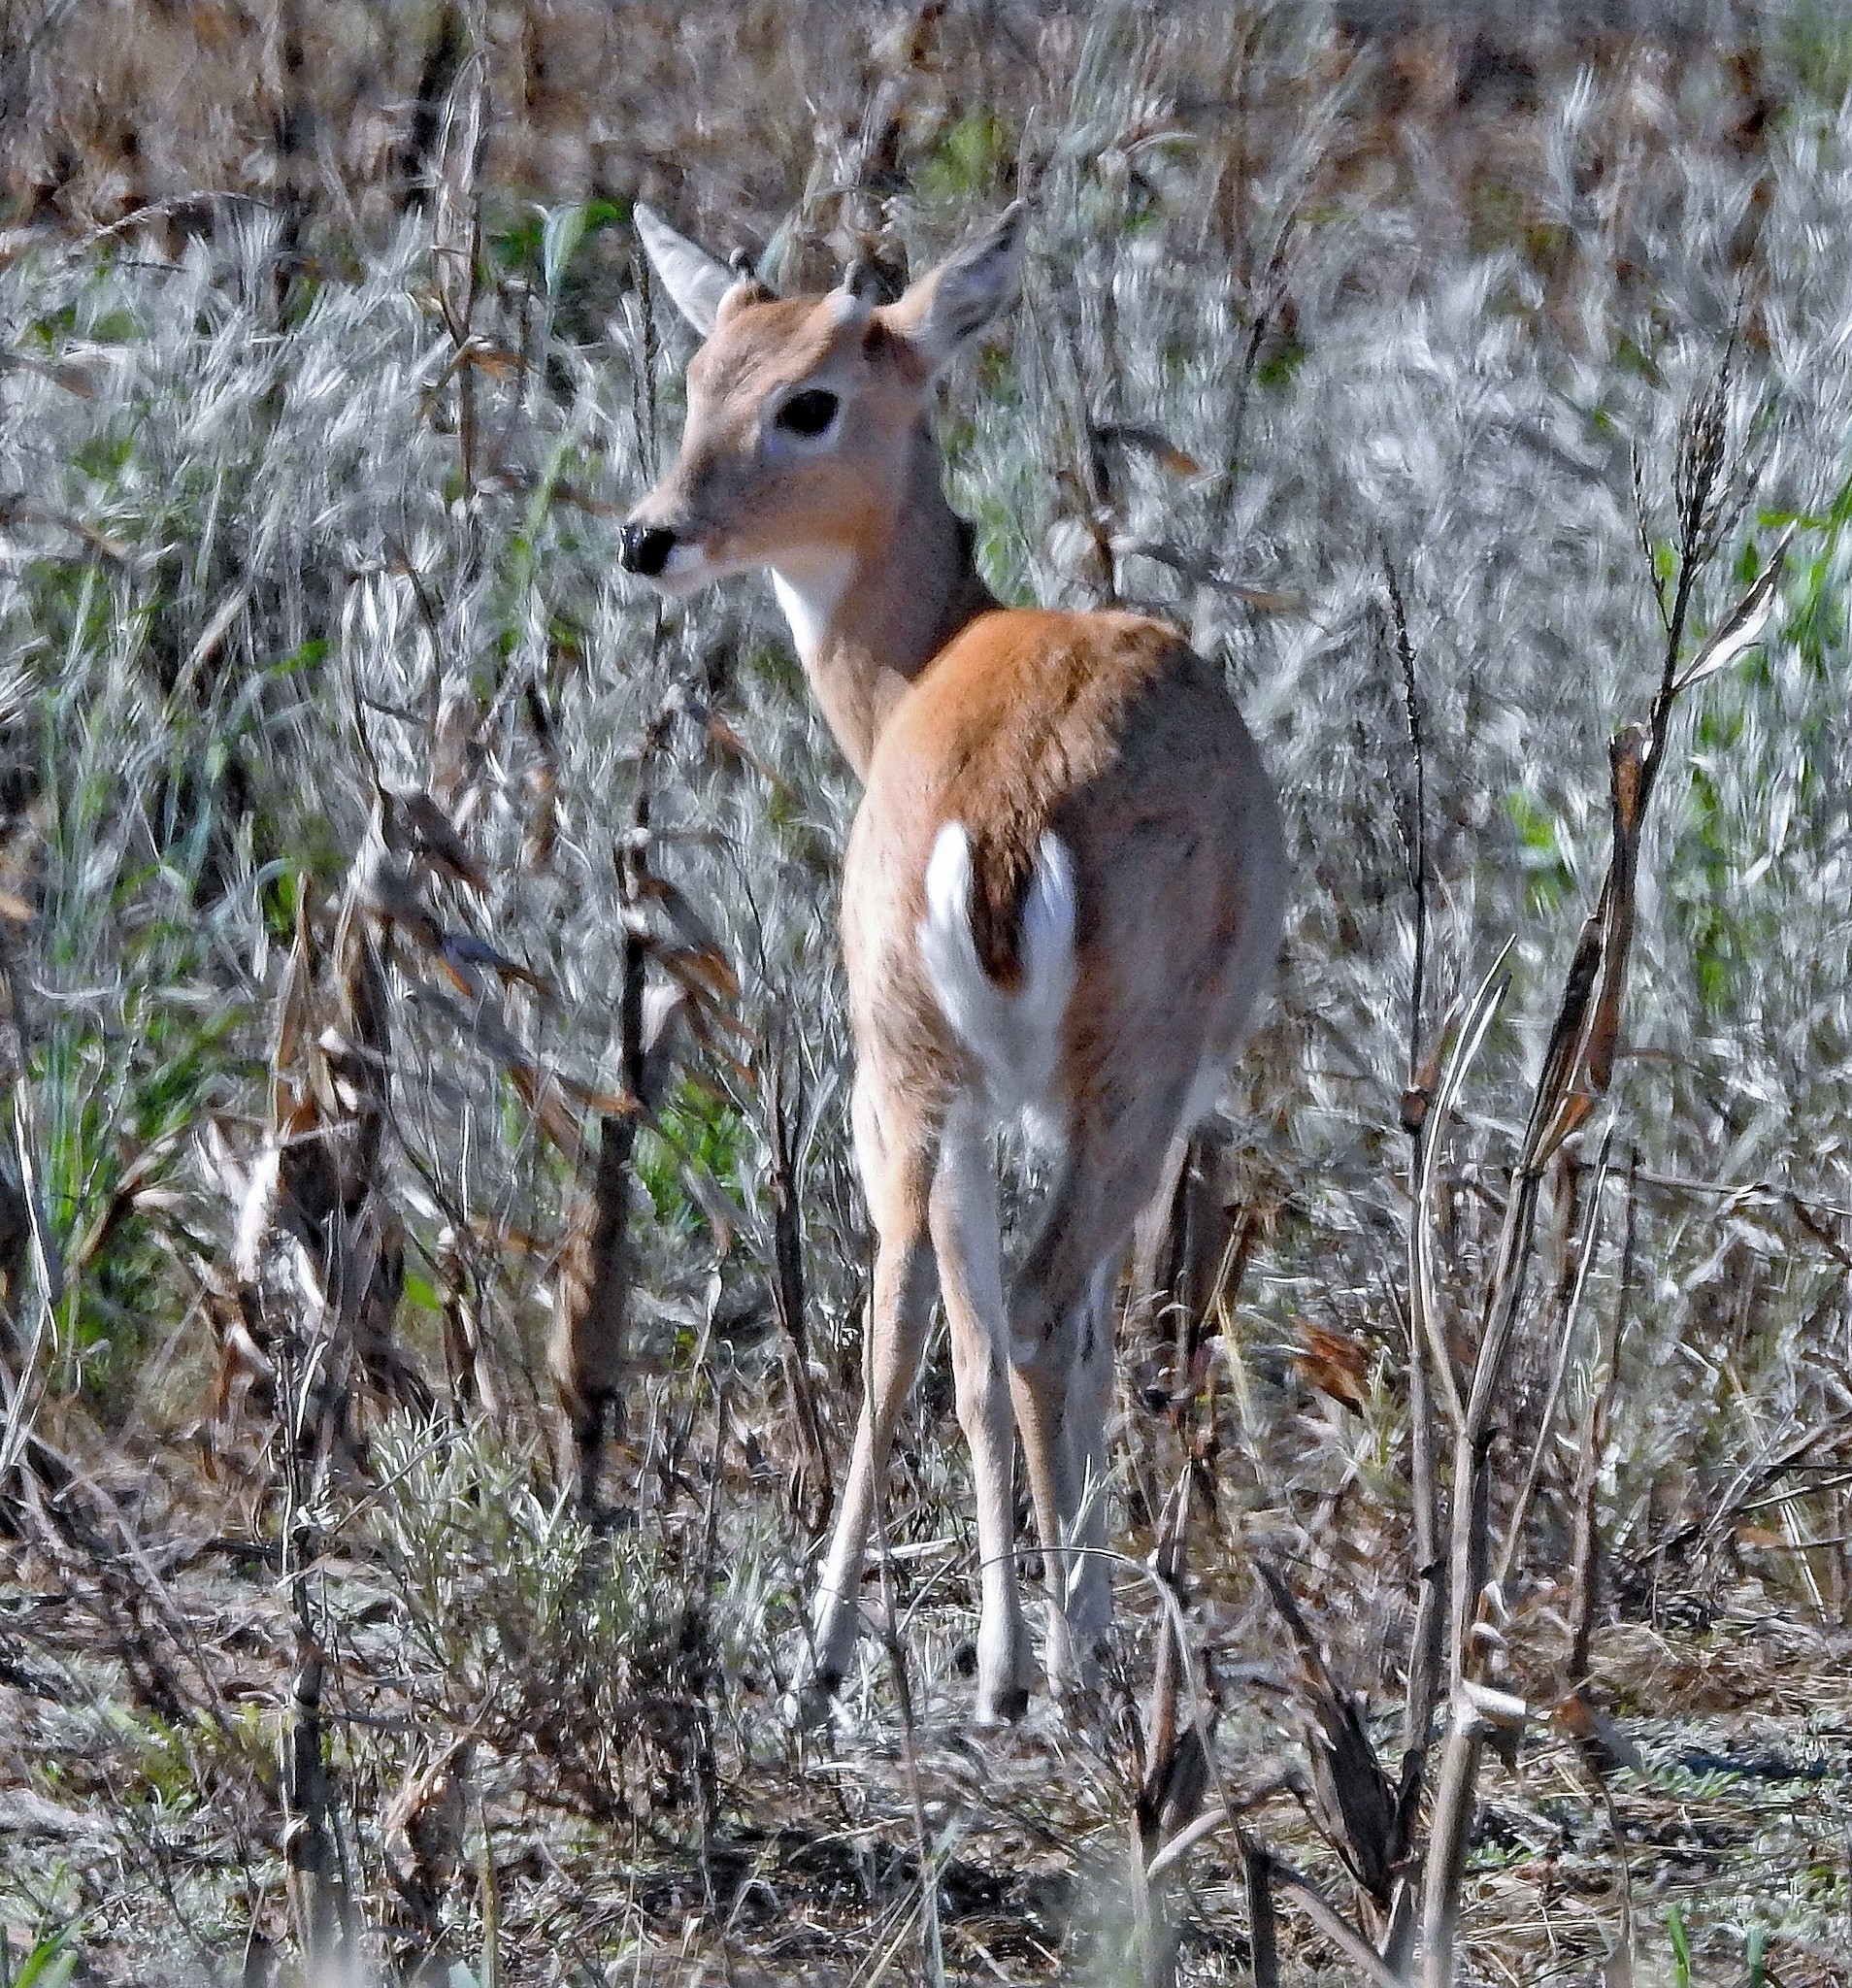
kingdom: Animalia
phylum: Chordata
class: Mammalia
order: Artiodactyla
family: Cervidae
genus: Ozotoceros
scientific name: Ozotoceros bezoarticus
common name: Pampas deer
